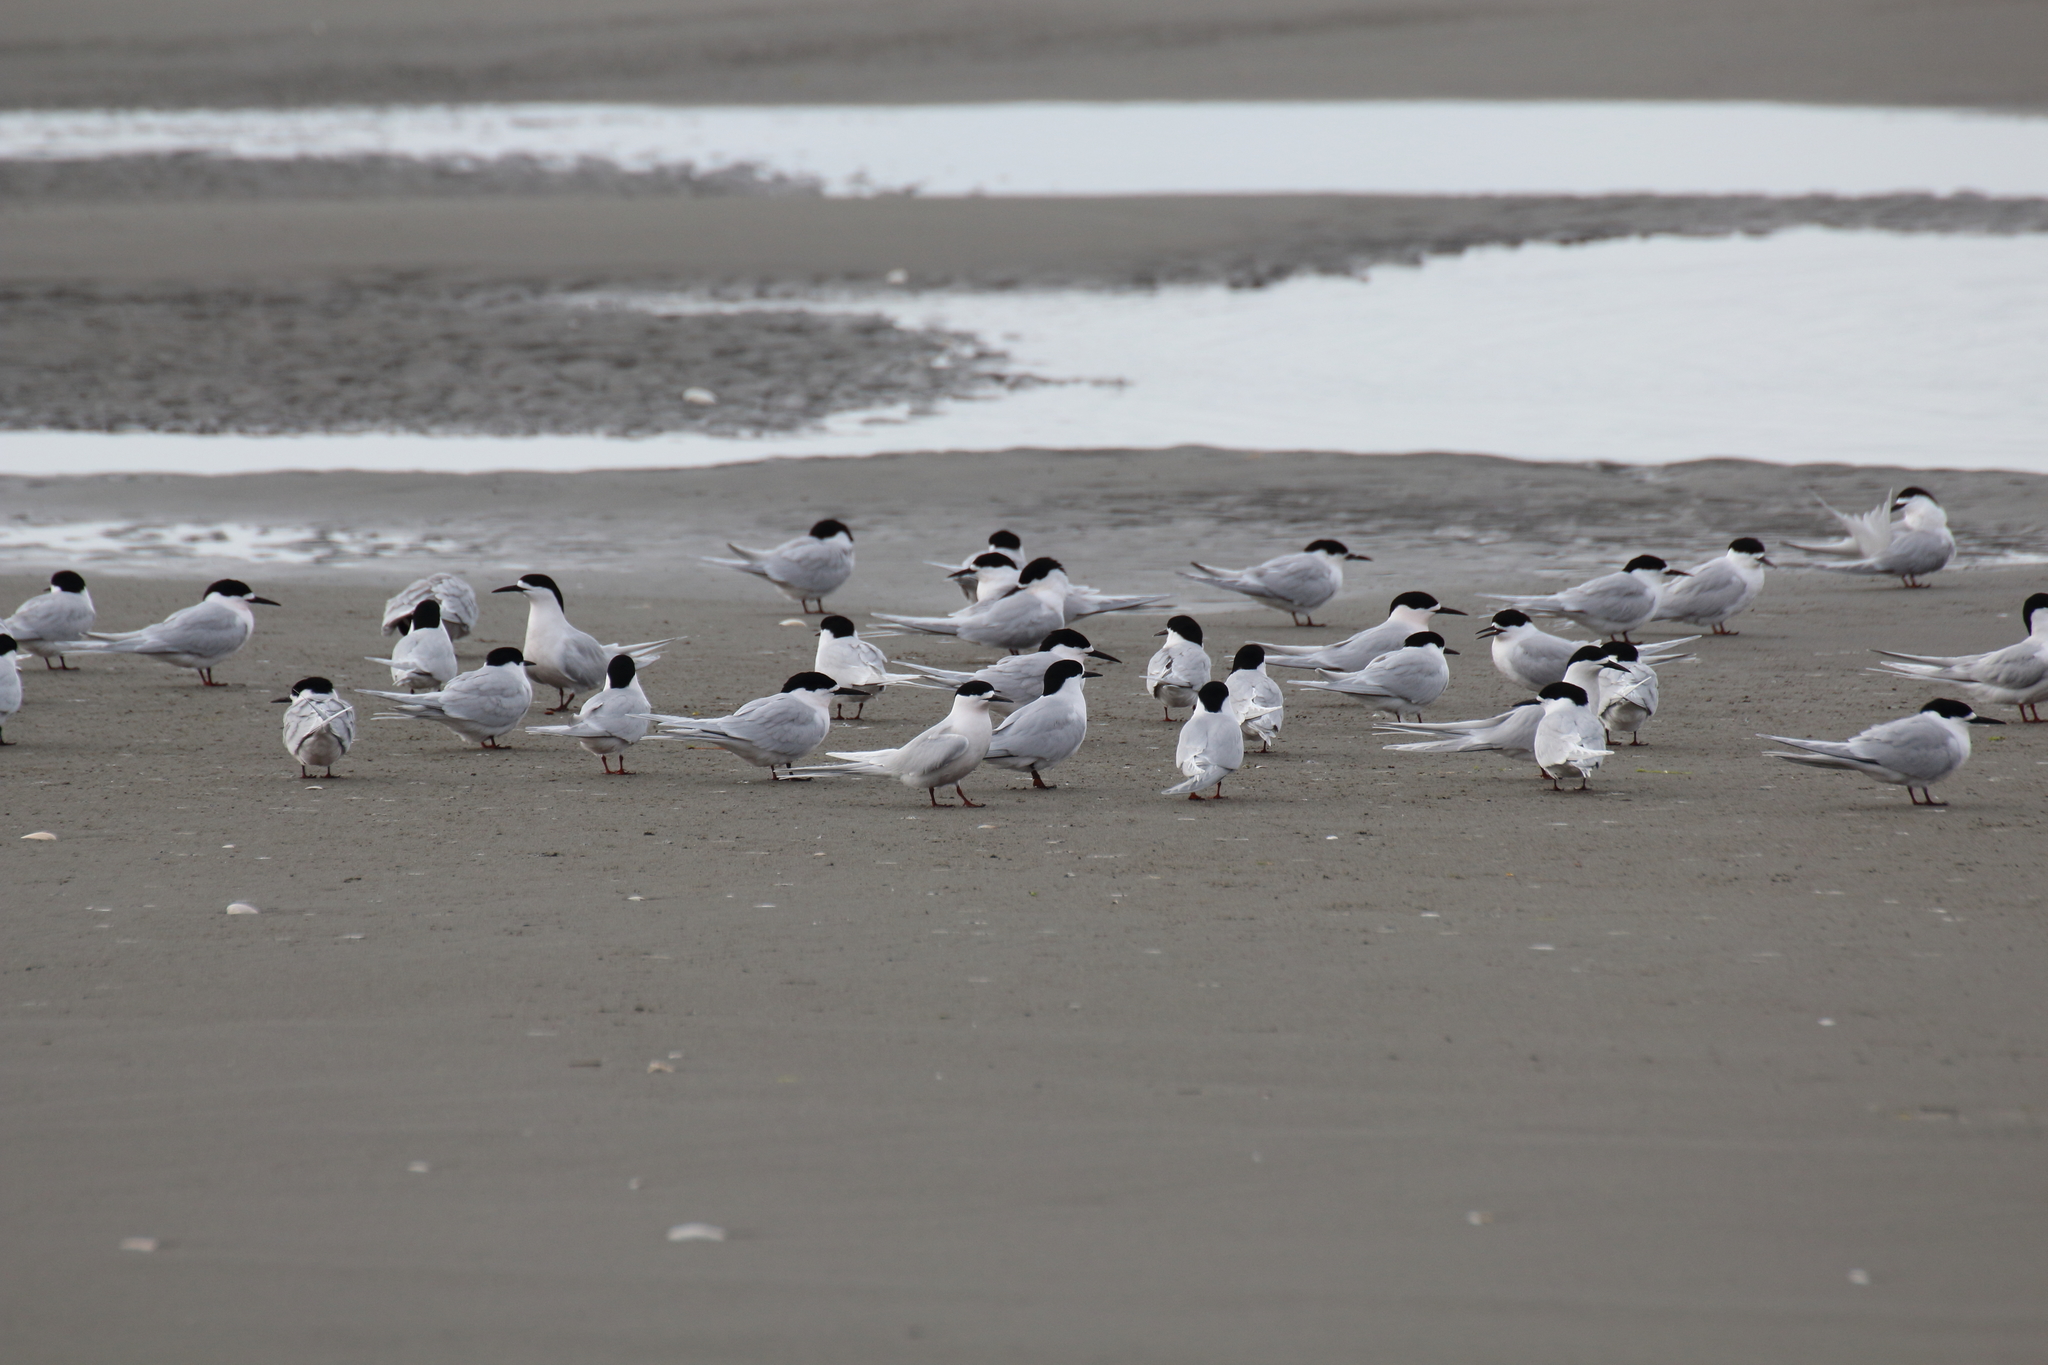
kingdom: Animalia
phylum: Chordata
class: Aves
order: Charadriiformes
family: Laridae
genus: Sterna
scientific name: Sterna striata
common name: White-fronted tern
